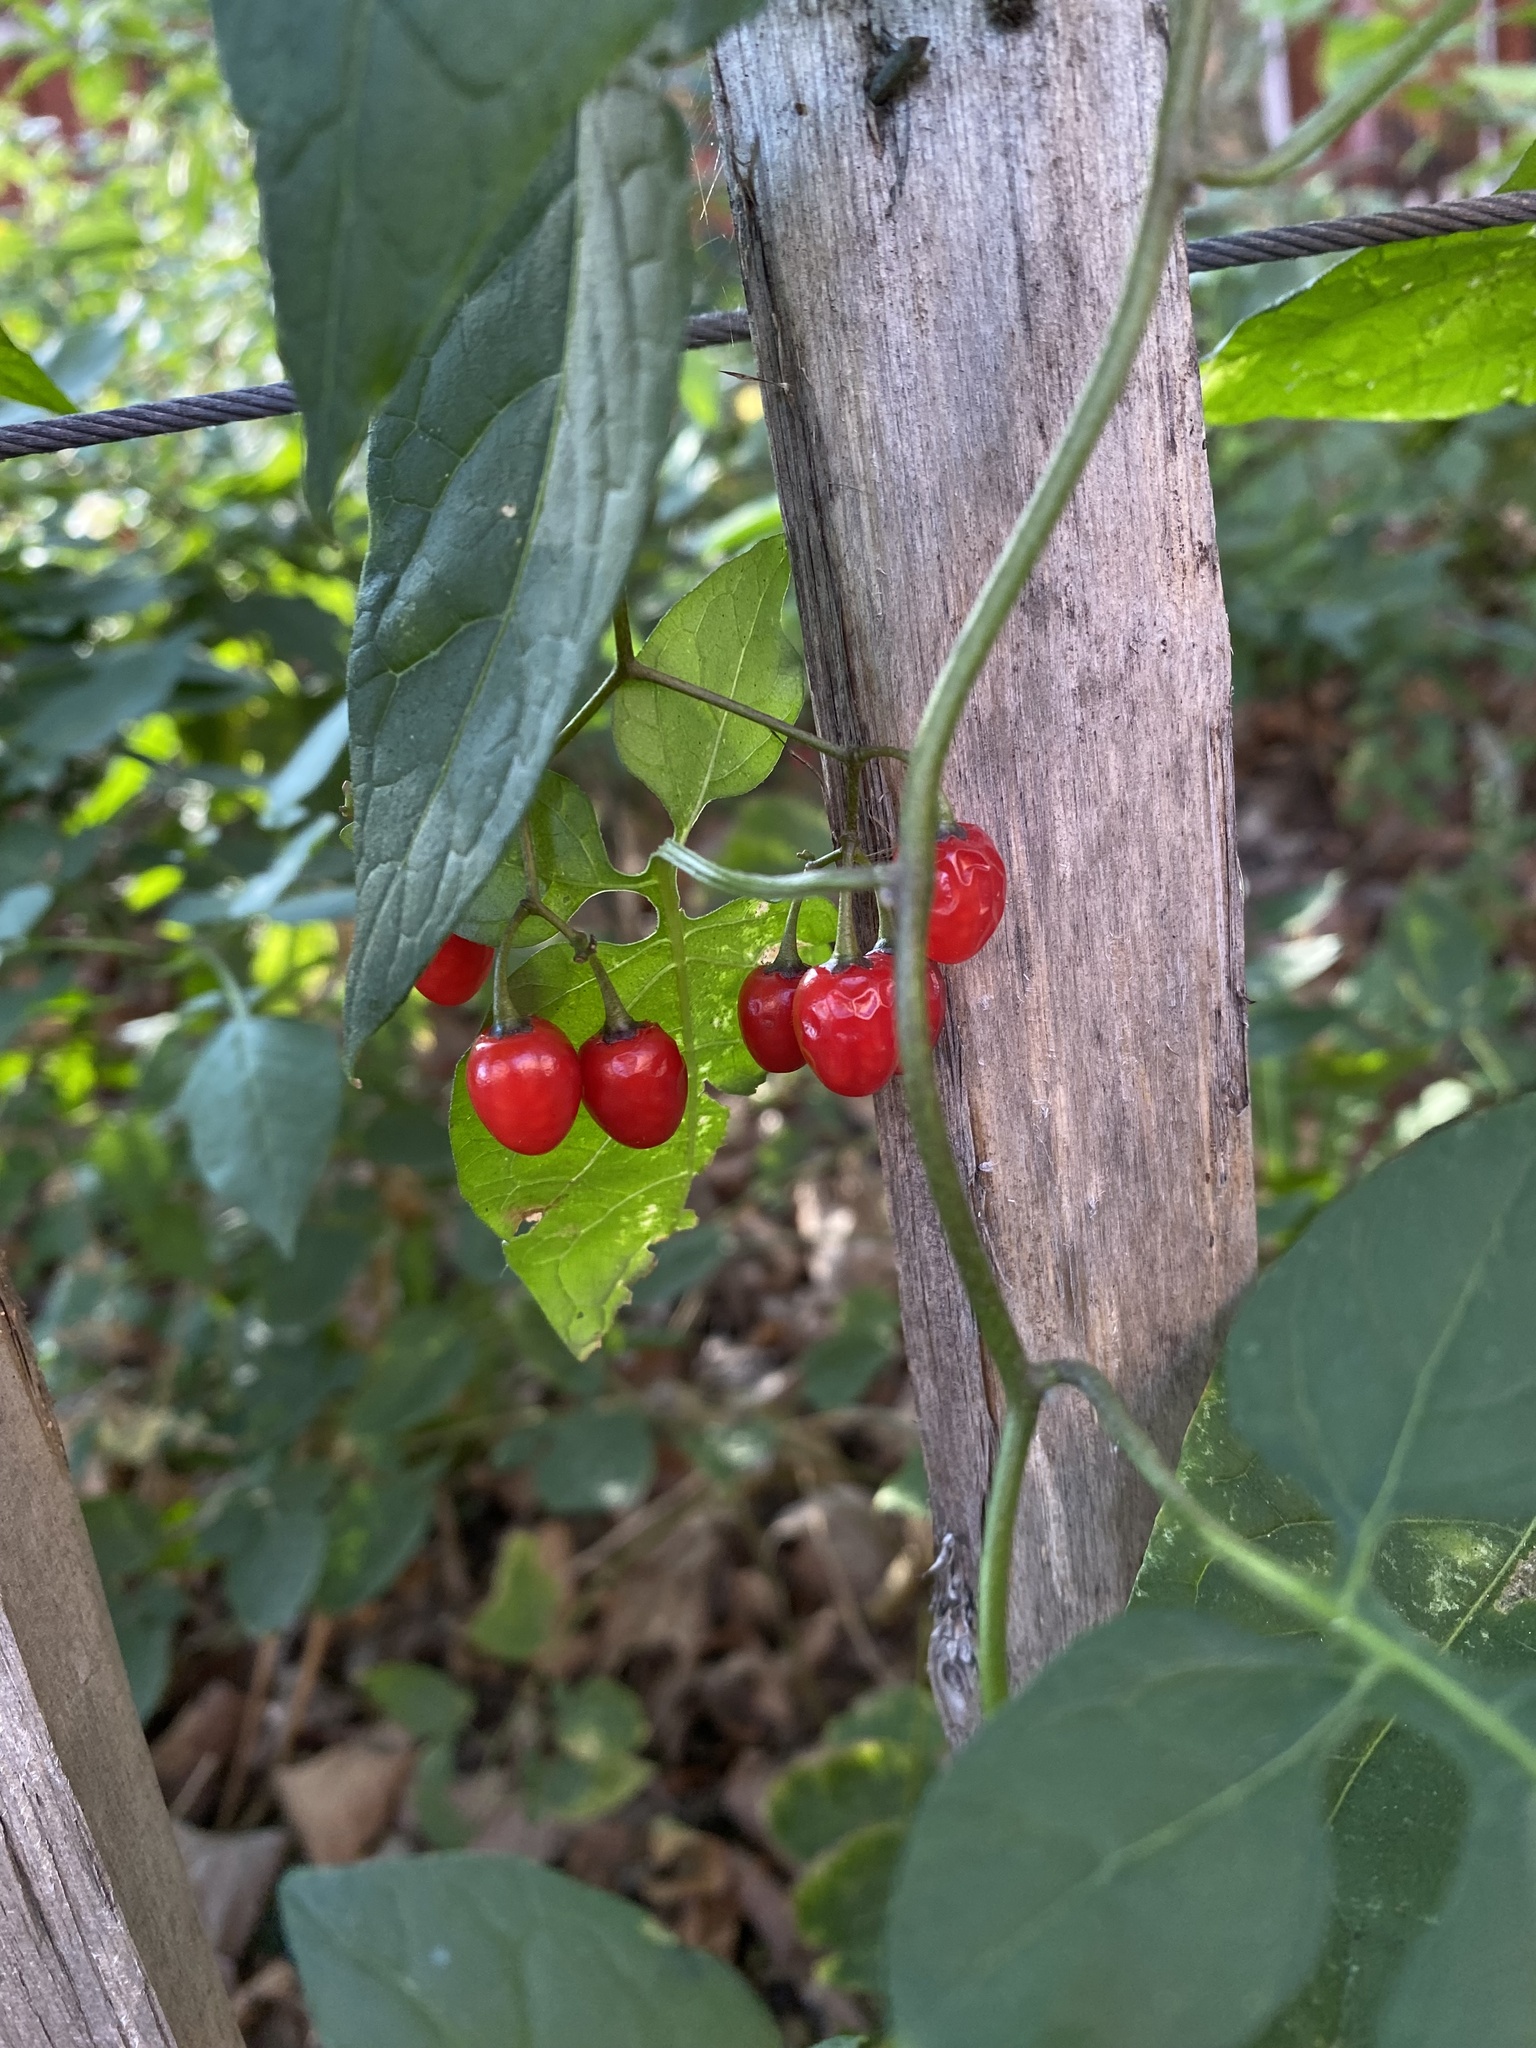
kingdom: Plantae
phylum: Tracheophyta
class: Magnoliopsida
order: Solanales
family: Solanaceae
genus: Solanum
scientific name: Solanum dulcamara
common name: Climbing nightshade
